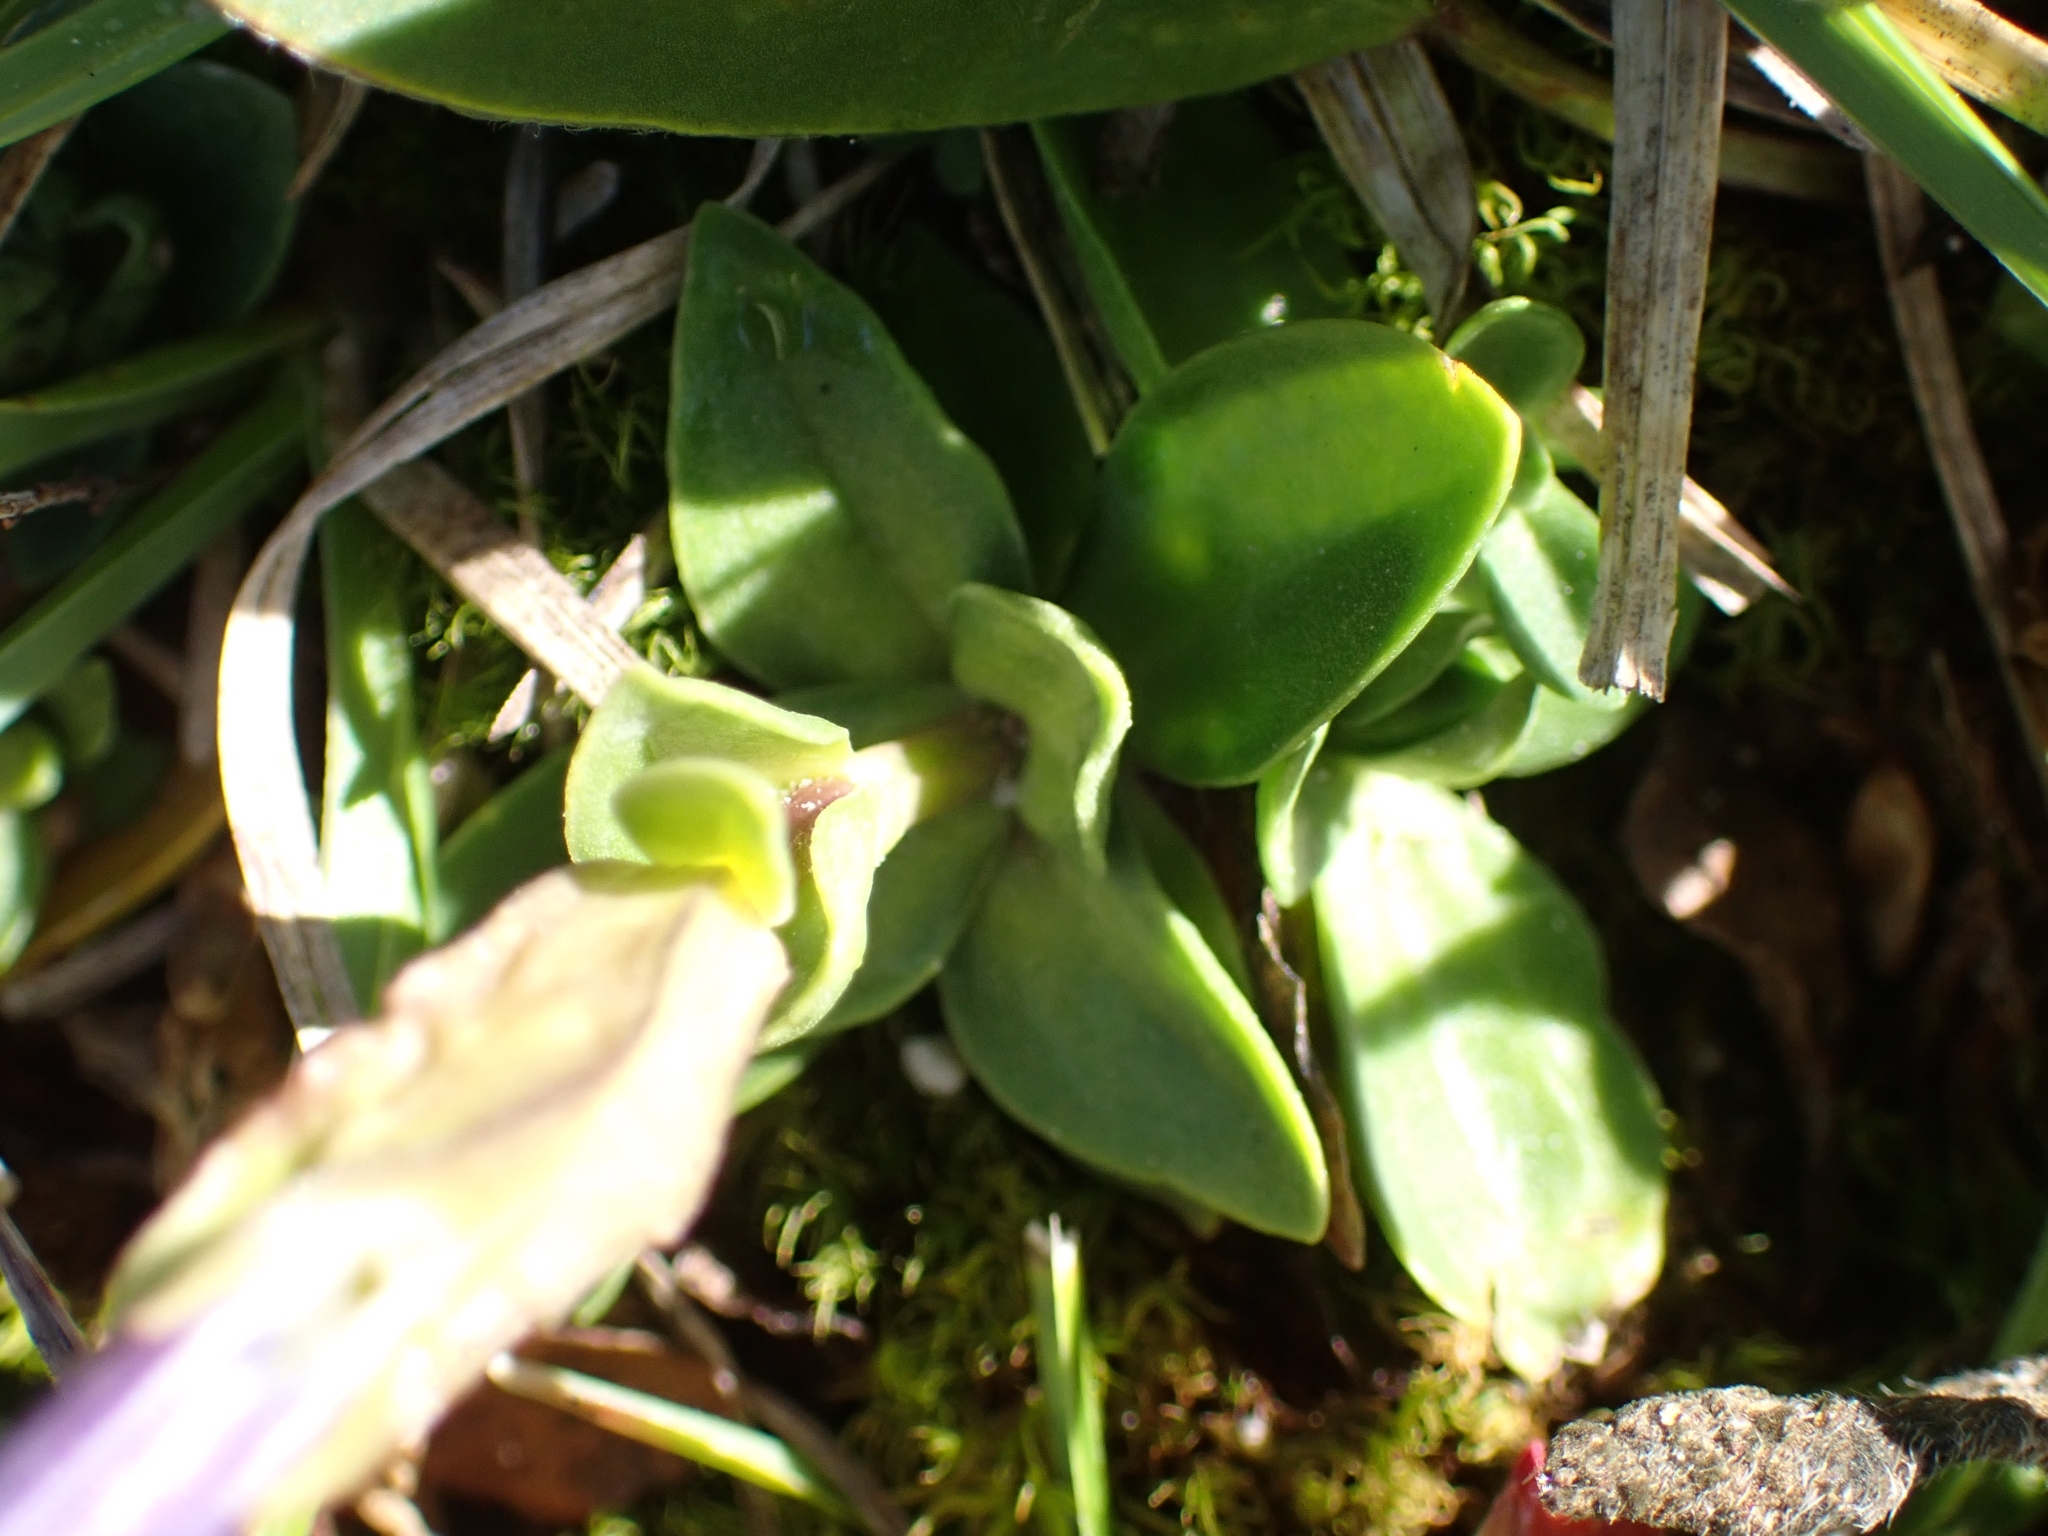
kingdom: Plantae
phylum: Tracheophyta
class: Magnoliopsida
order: Gentianales
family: Gentianaceae
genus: Gentiana
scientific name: Gentiana verna
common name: Spring gentian
